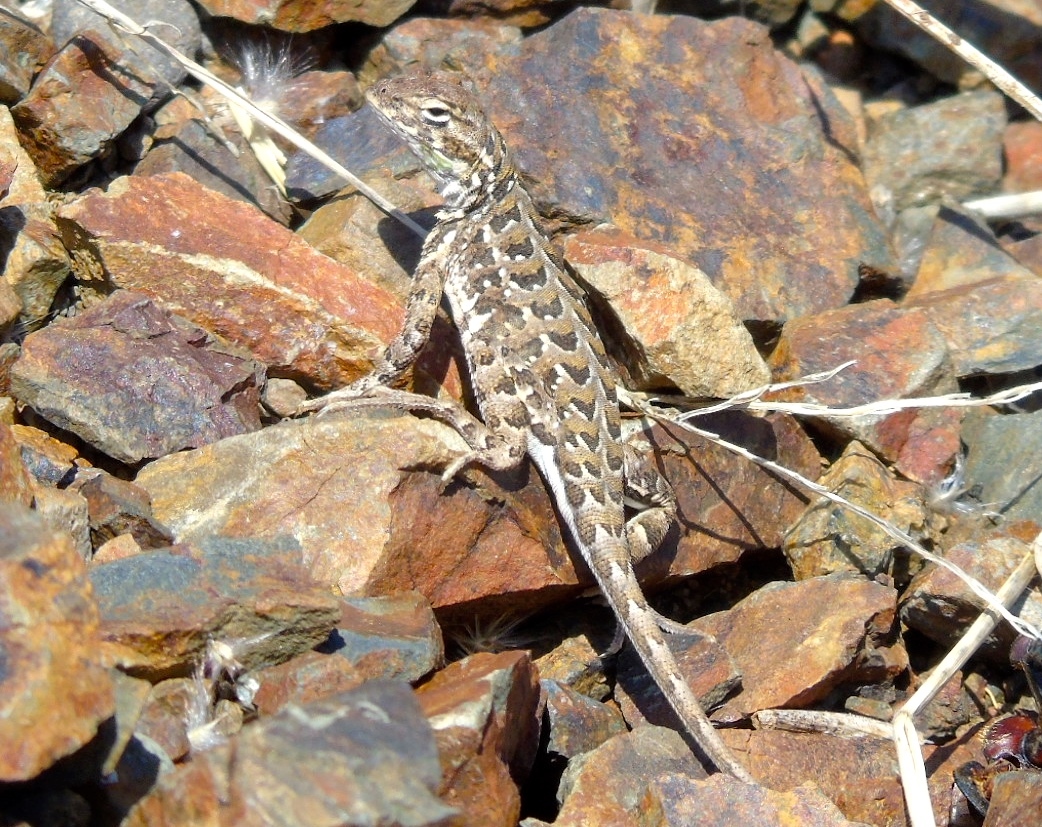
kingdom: Animalia
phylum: Chordata
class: Squamata
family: Phrynosomatidae
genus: Holbrookia
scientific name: Holbrookia elegans
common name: Elegant earless lizard
